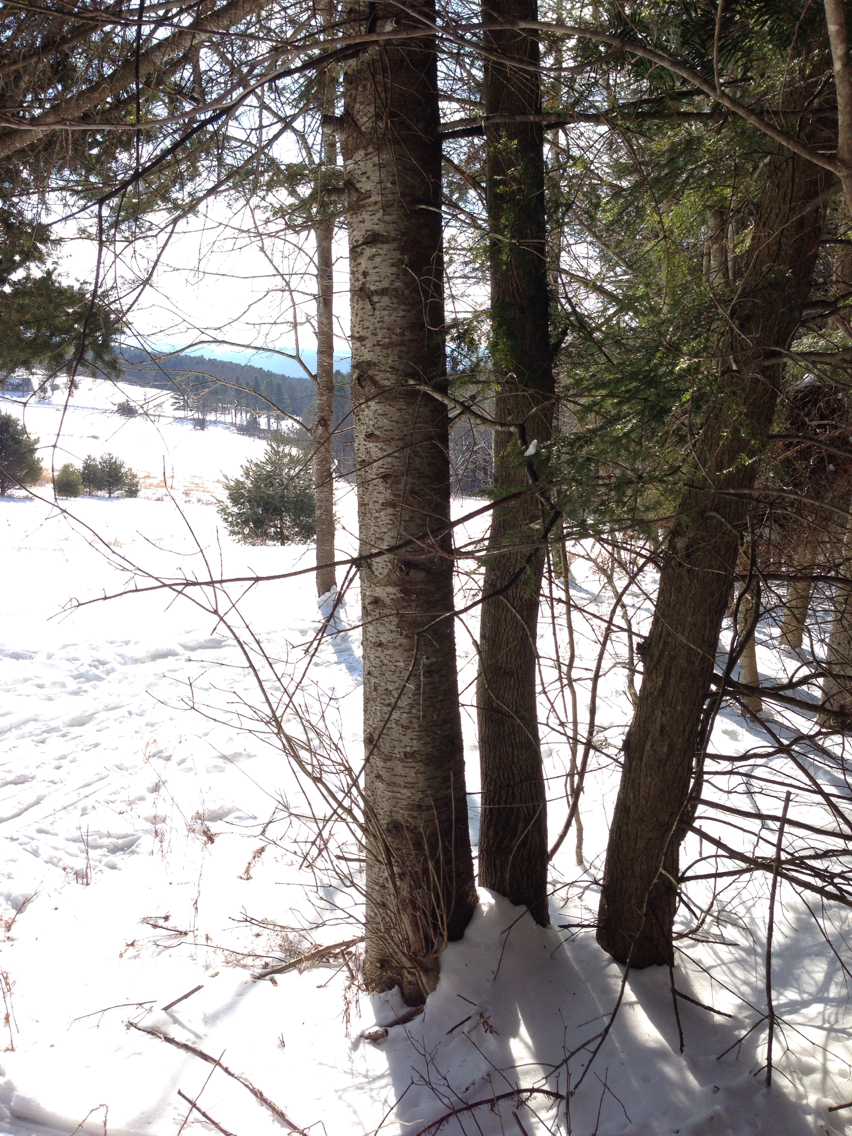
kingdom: Plantae
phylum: Tracheophyta
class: Pinopsida
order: Pinales
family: Pinaceae
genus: Abies
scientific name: Abies balsamea
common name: Balsam fir
